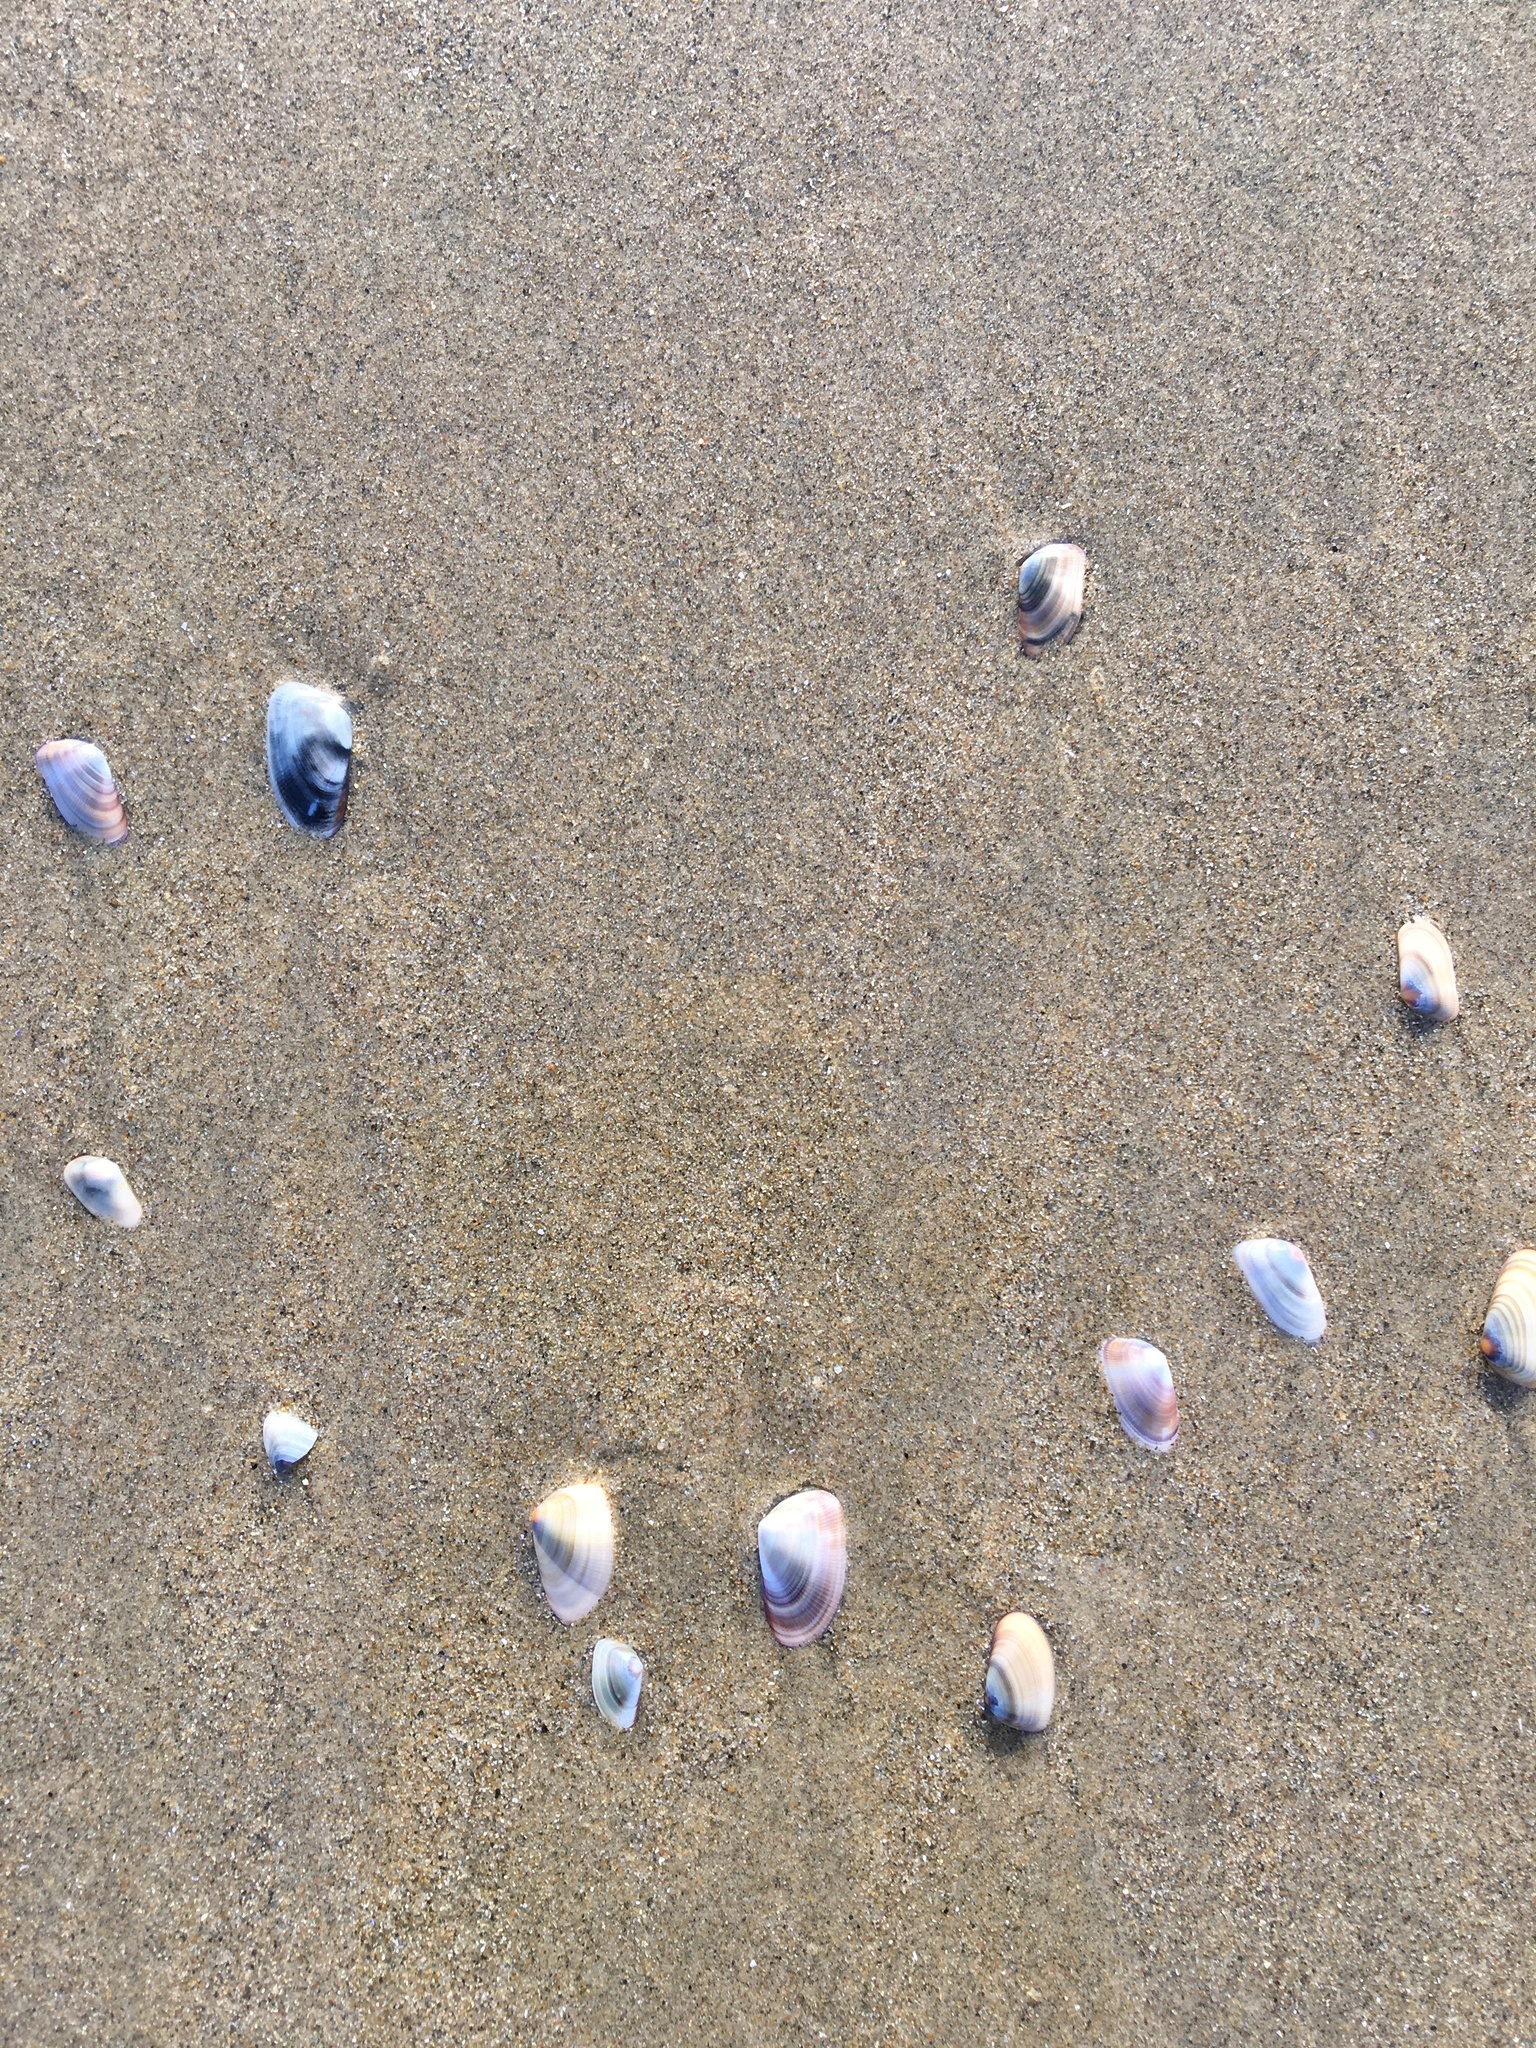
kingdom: Animalia
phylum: Mollusca
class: Bivalvia
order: Cardiida
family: Donacidae
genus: Donax
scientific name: Donax gouldii
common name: Gould beanclam
